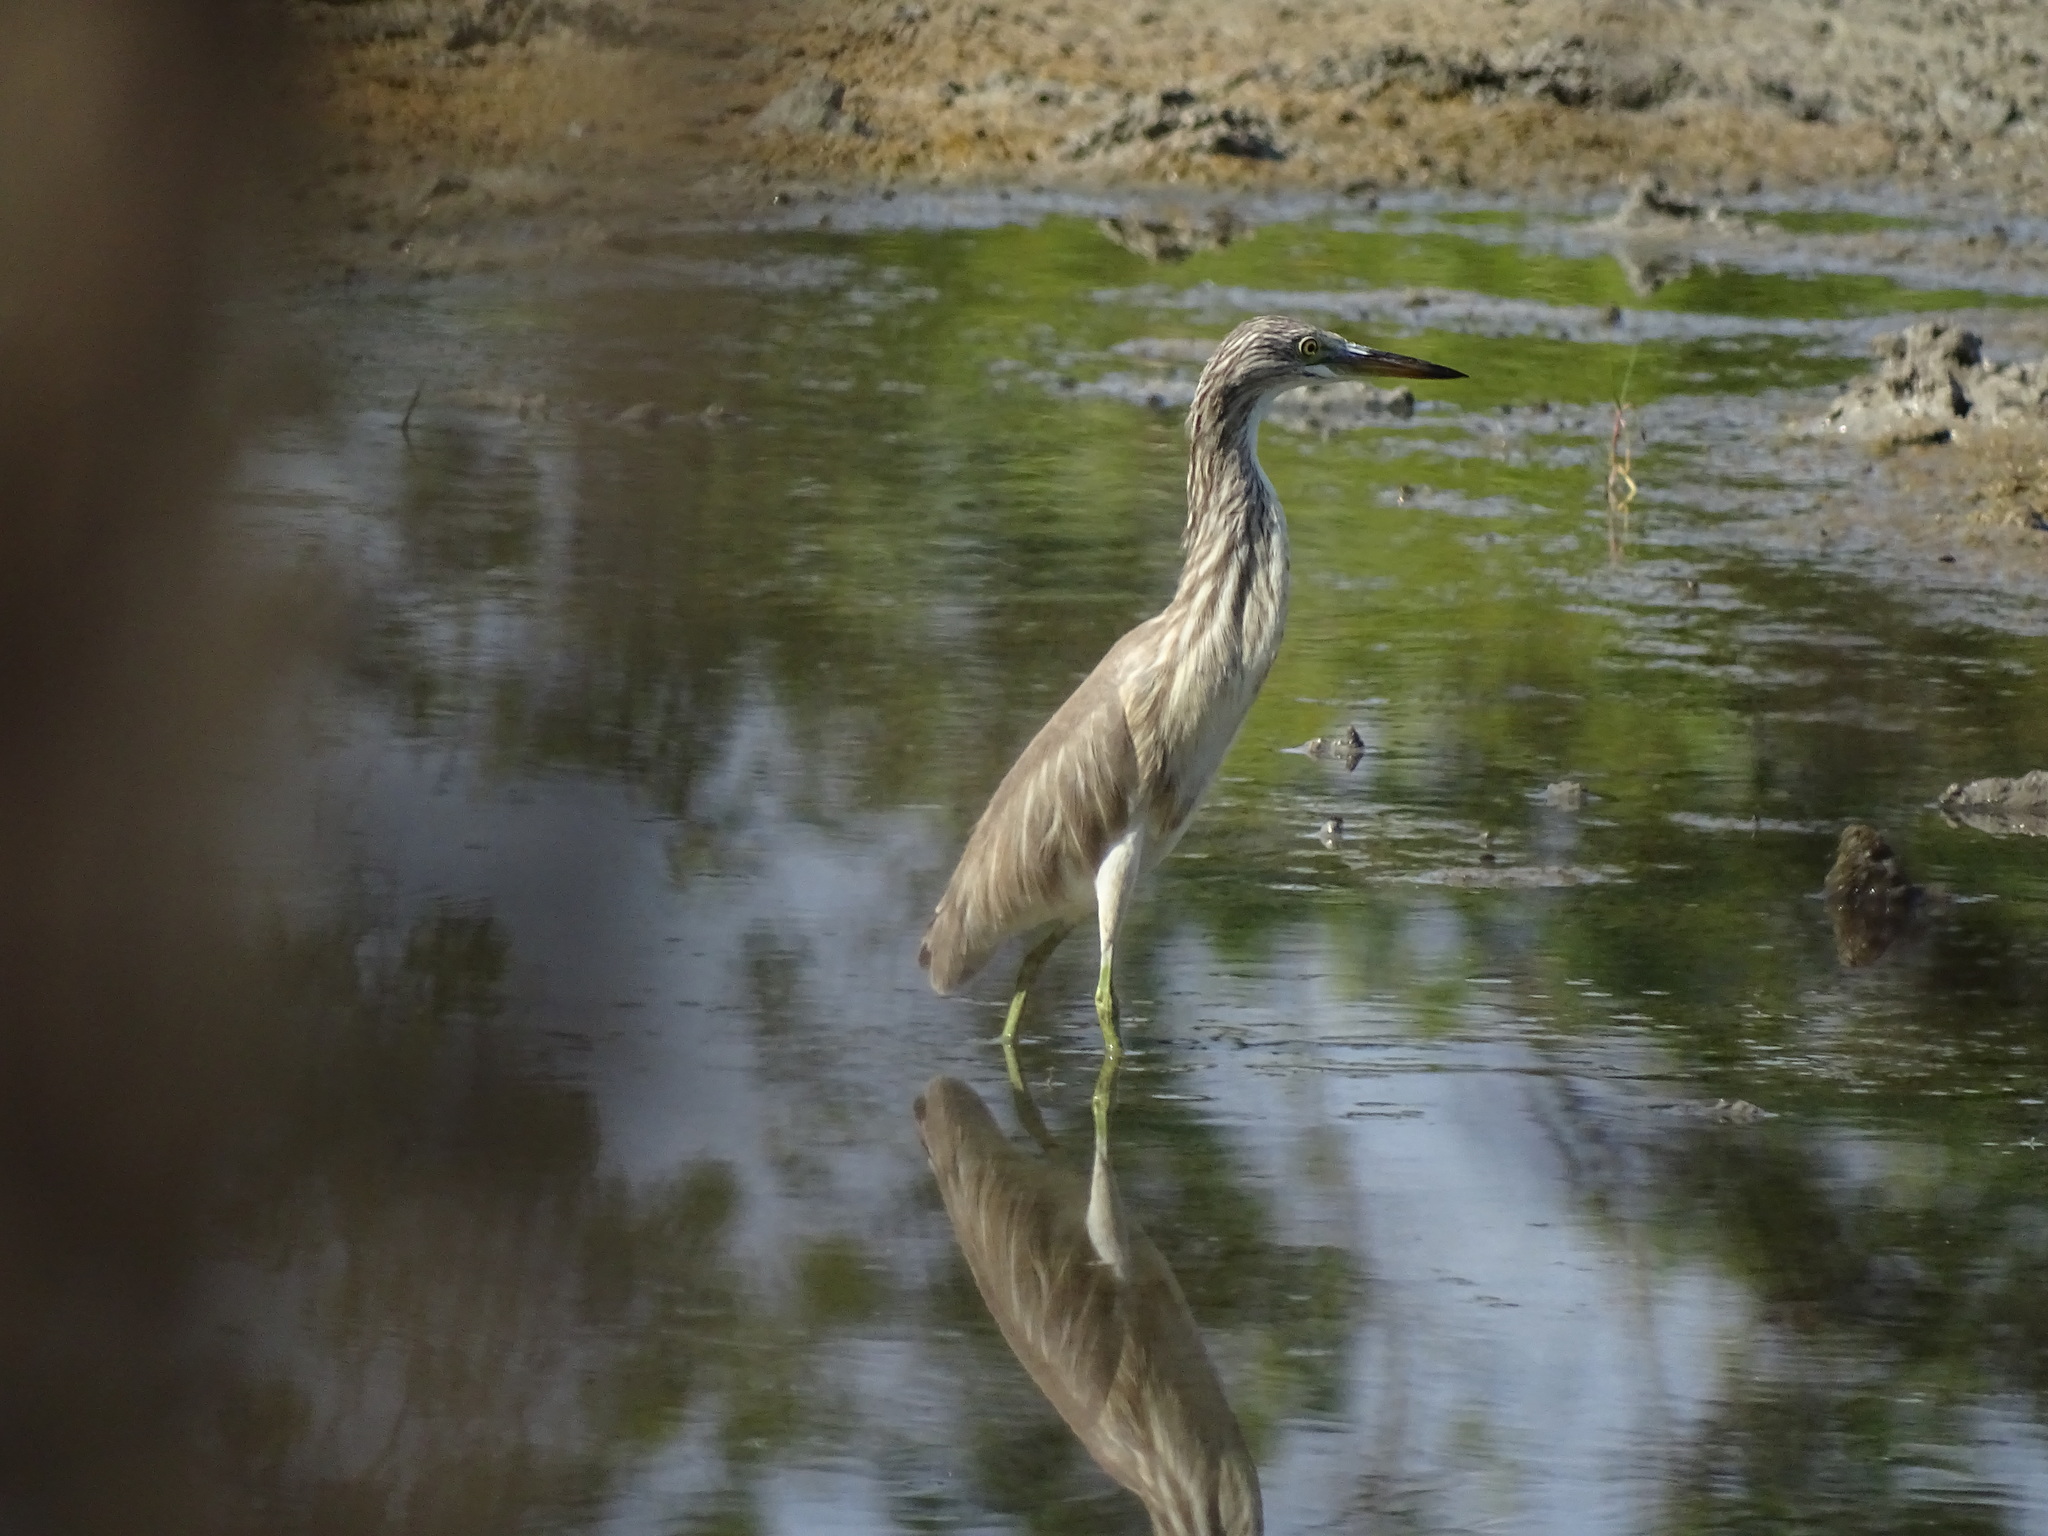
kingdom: Animalia
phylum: Chordata
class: Aves
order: Pelecaniformes
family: Ardeidae
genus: Ardeola
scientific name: Ardeola speciosa
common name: Javan pond heron
